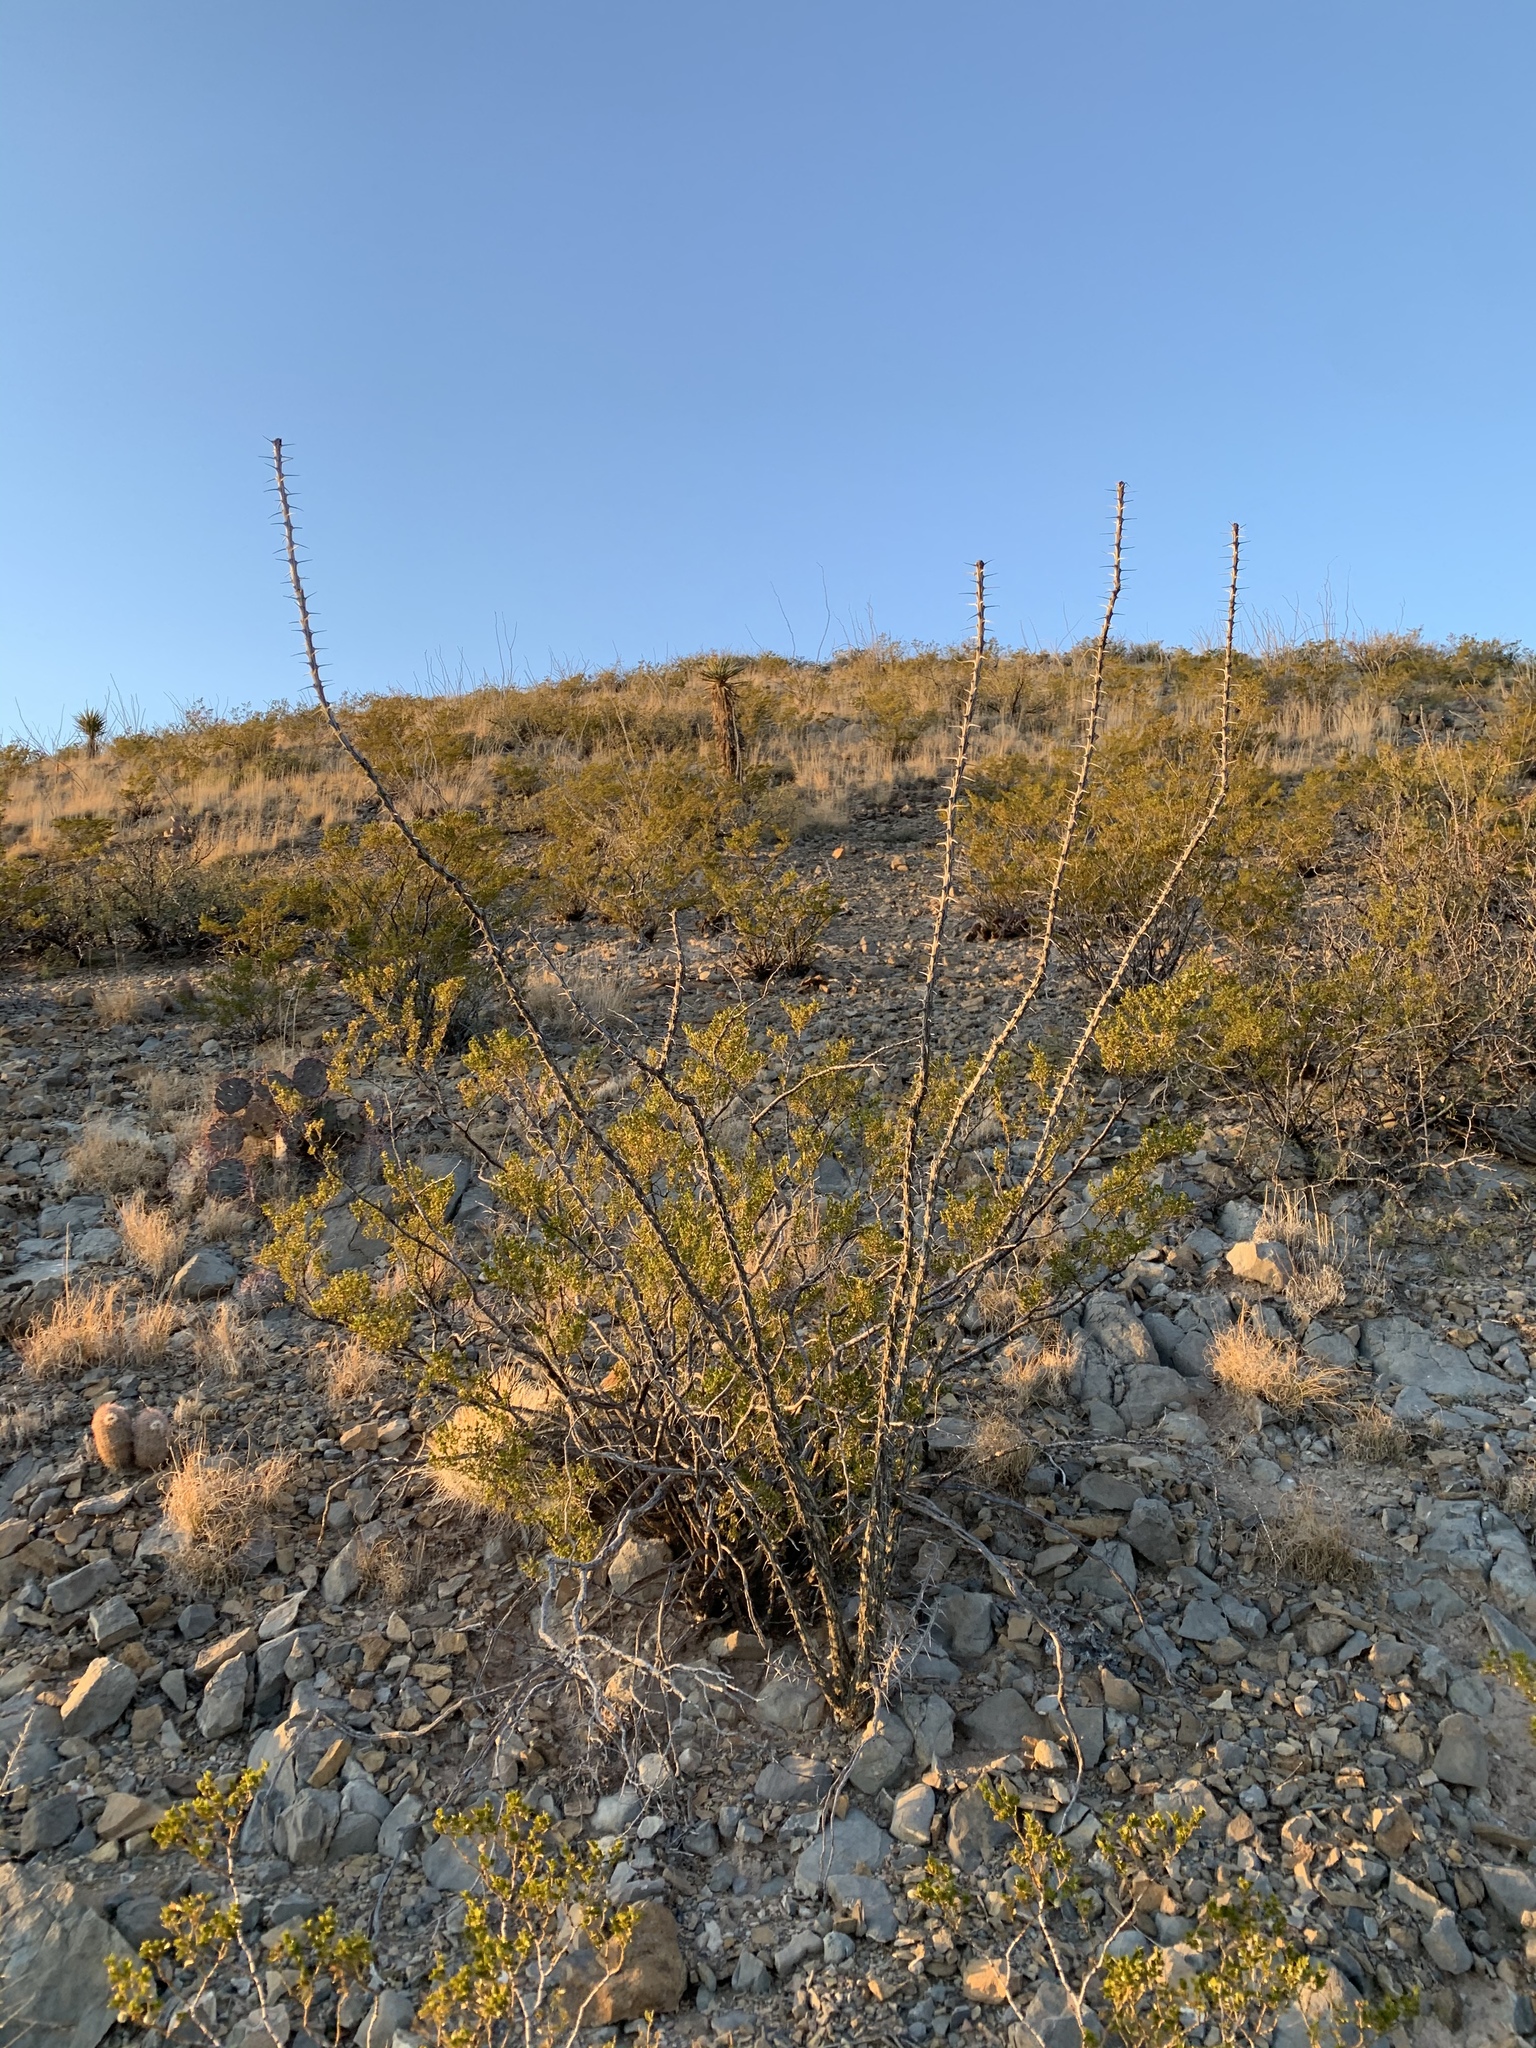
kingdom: Plantae
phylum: Tracheophyta
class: Magnoliopsida
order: Ericales
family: Fouquieriaceae
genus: Fouquieria
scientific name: Fouquieria splendens
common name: Vine-cactus
